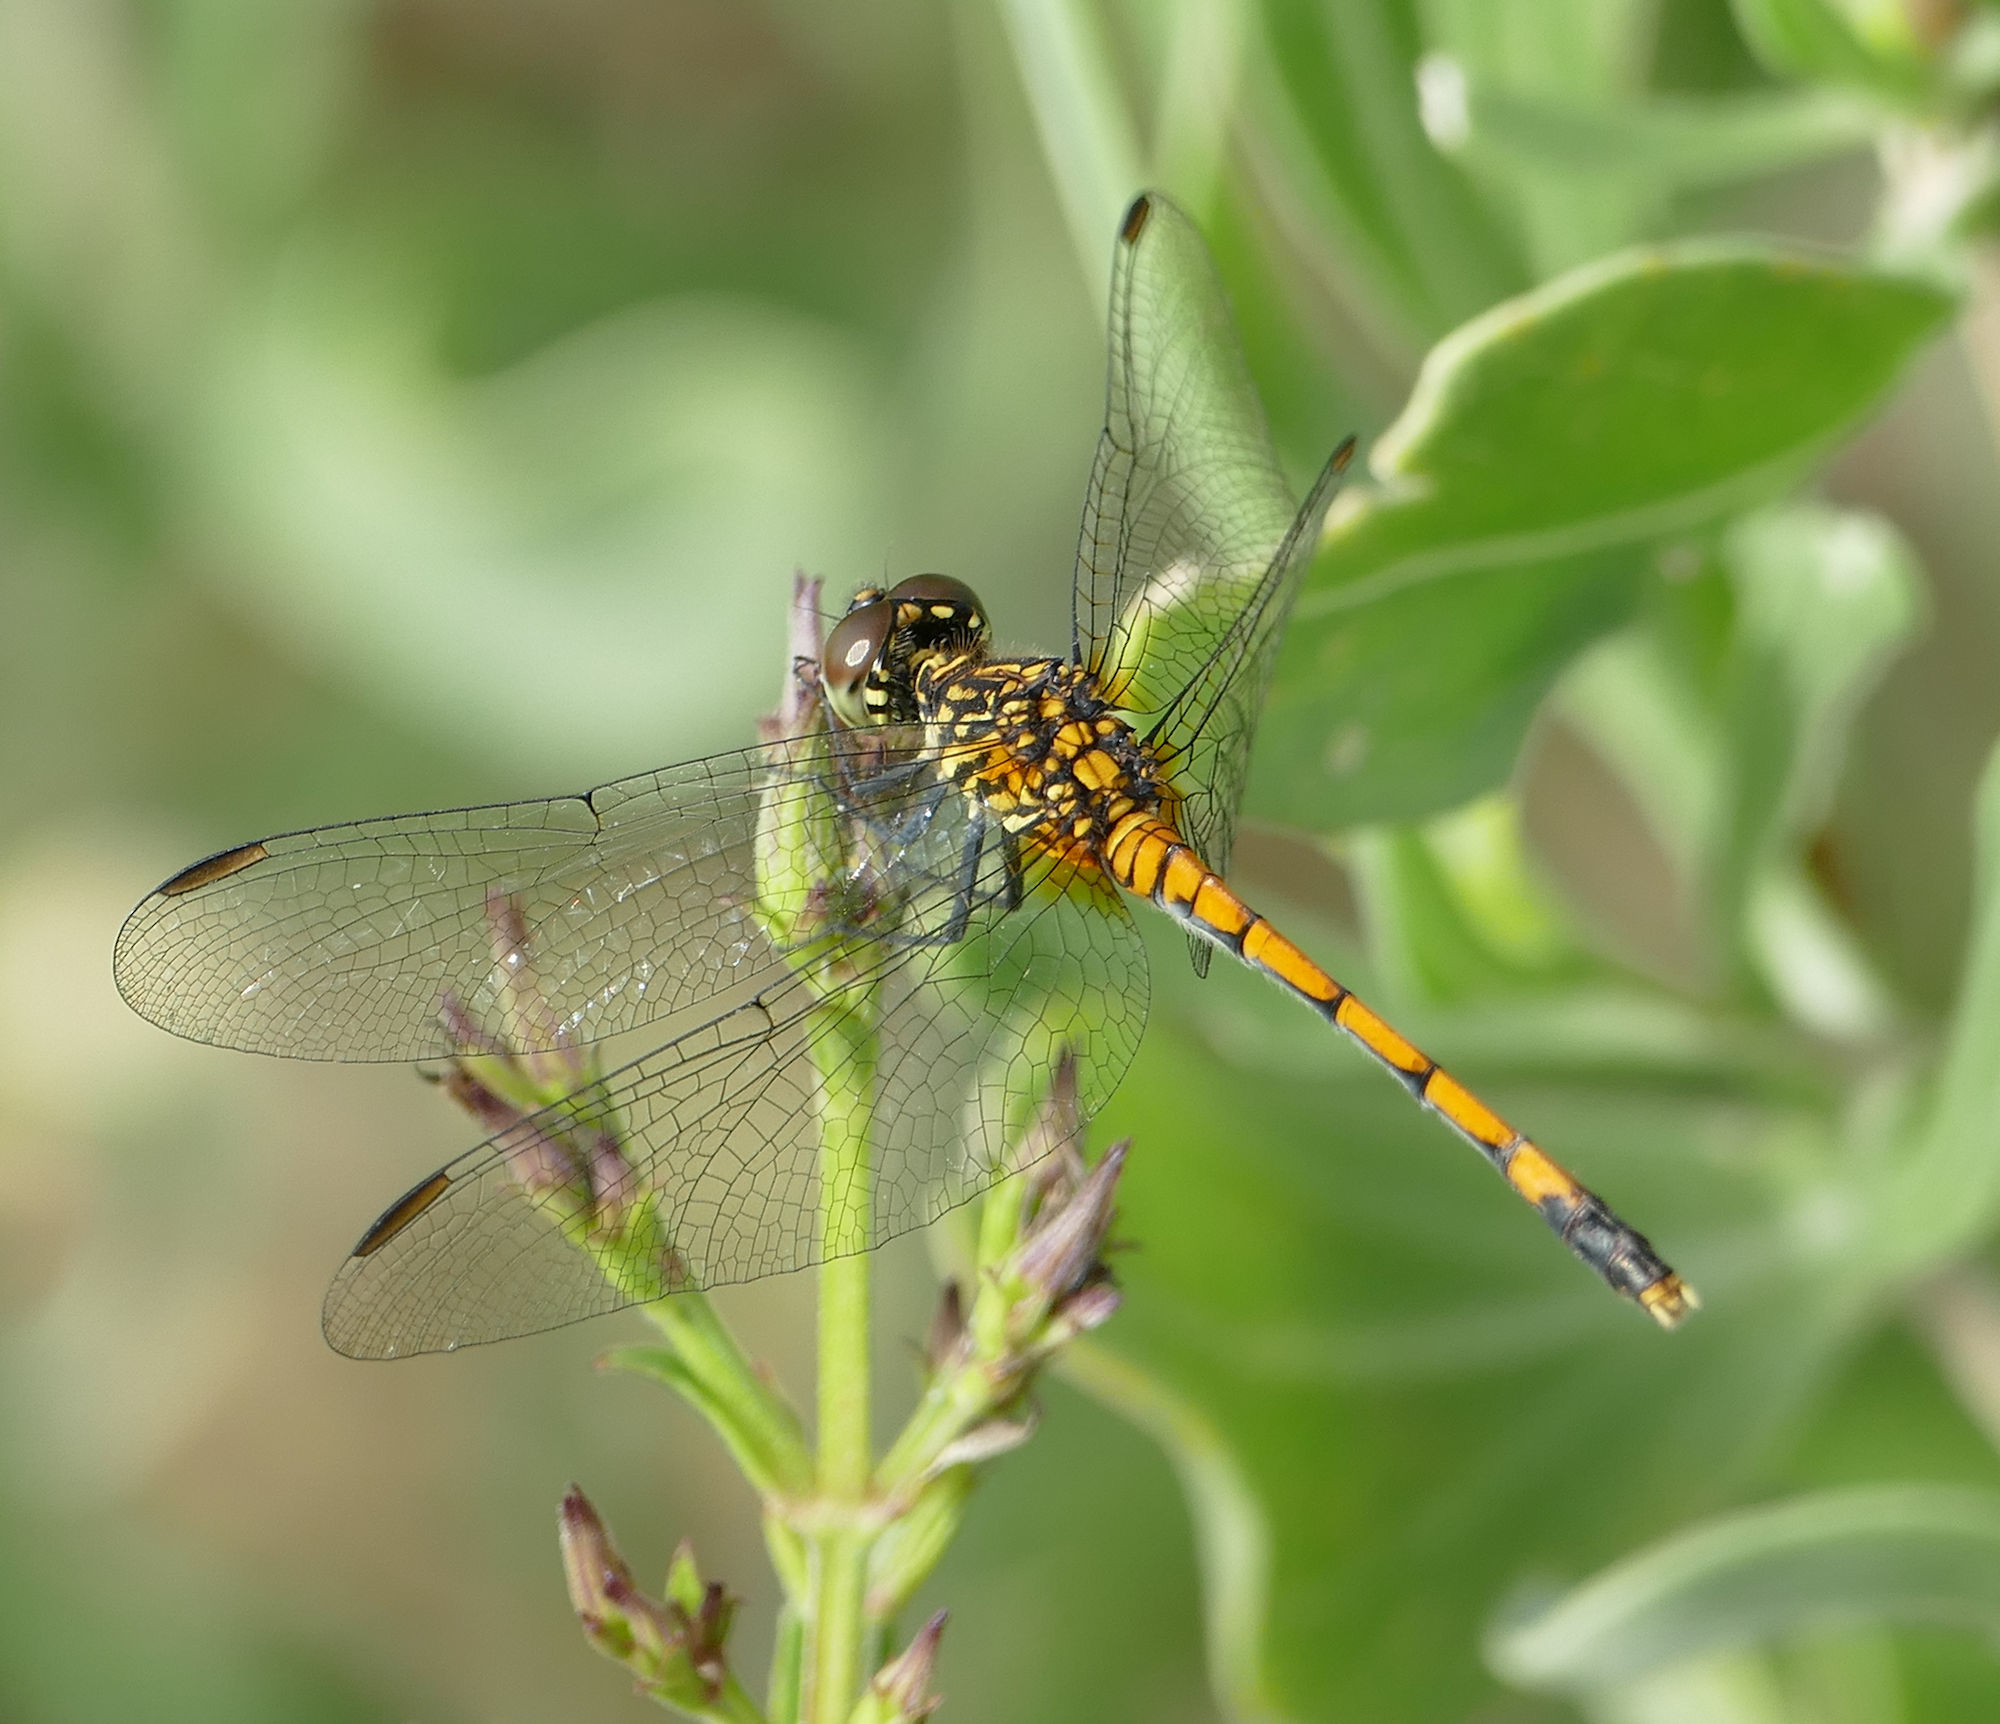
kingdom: Animalia
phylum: Arthropoda
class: Insecta
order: Odonata
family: Libellulidae
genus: Erythrodiplax
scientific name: Erythrodiplax berenice
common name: Seaside dragonlet
